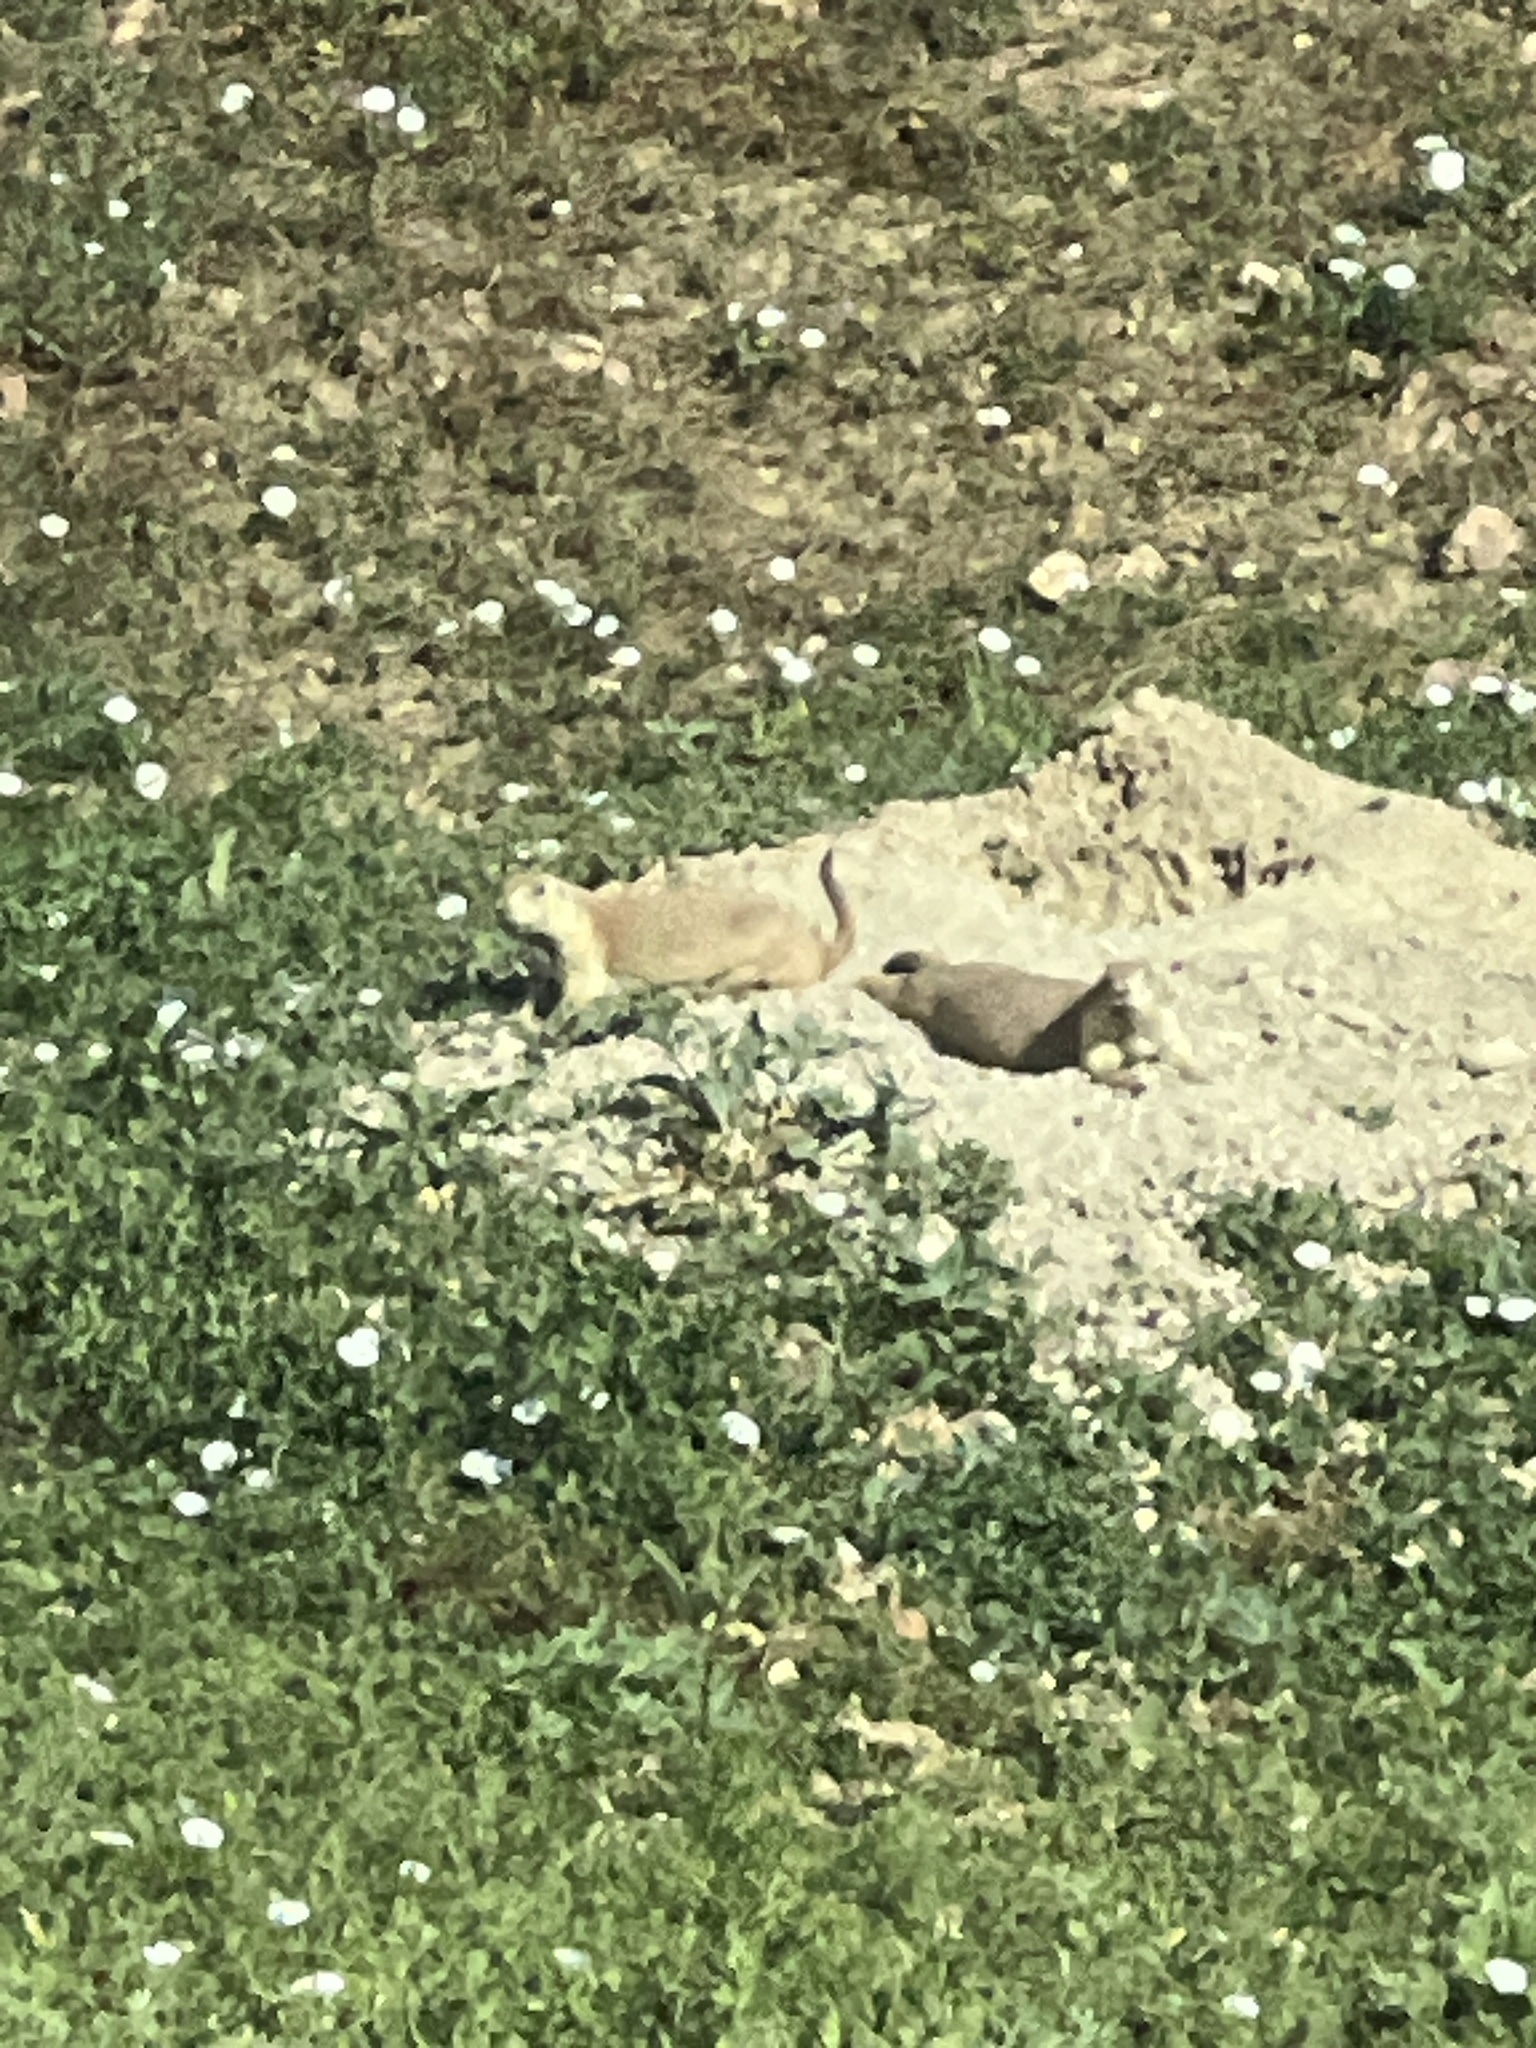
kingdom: Animalia
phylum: Chordata
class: Mammalia
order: Rodentia
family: Sciuridae
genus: Cynomys
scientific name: Cynomys ludovicianus
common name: Black-tailed prairie dog
